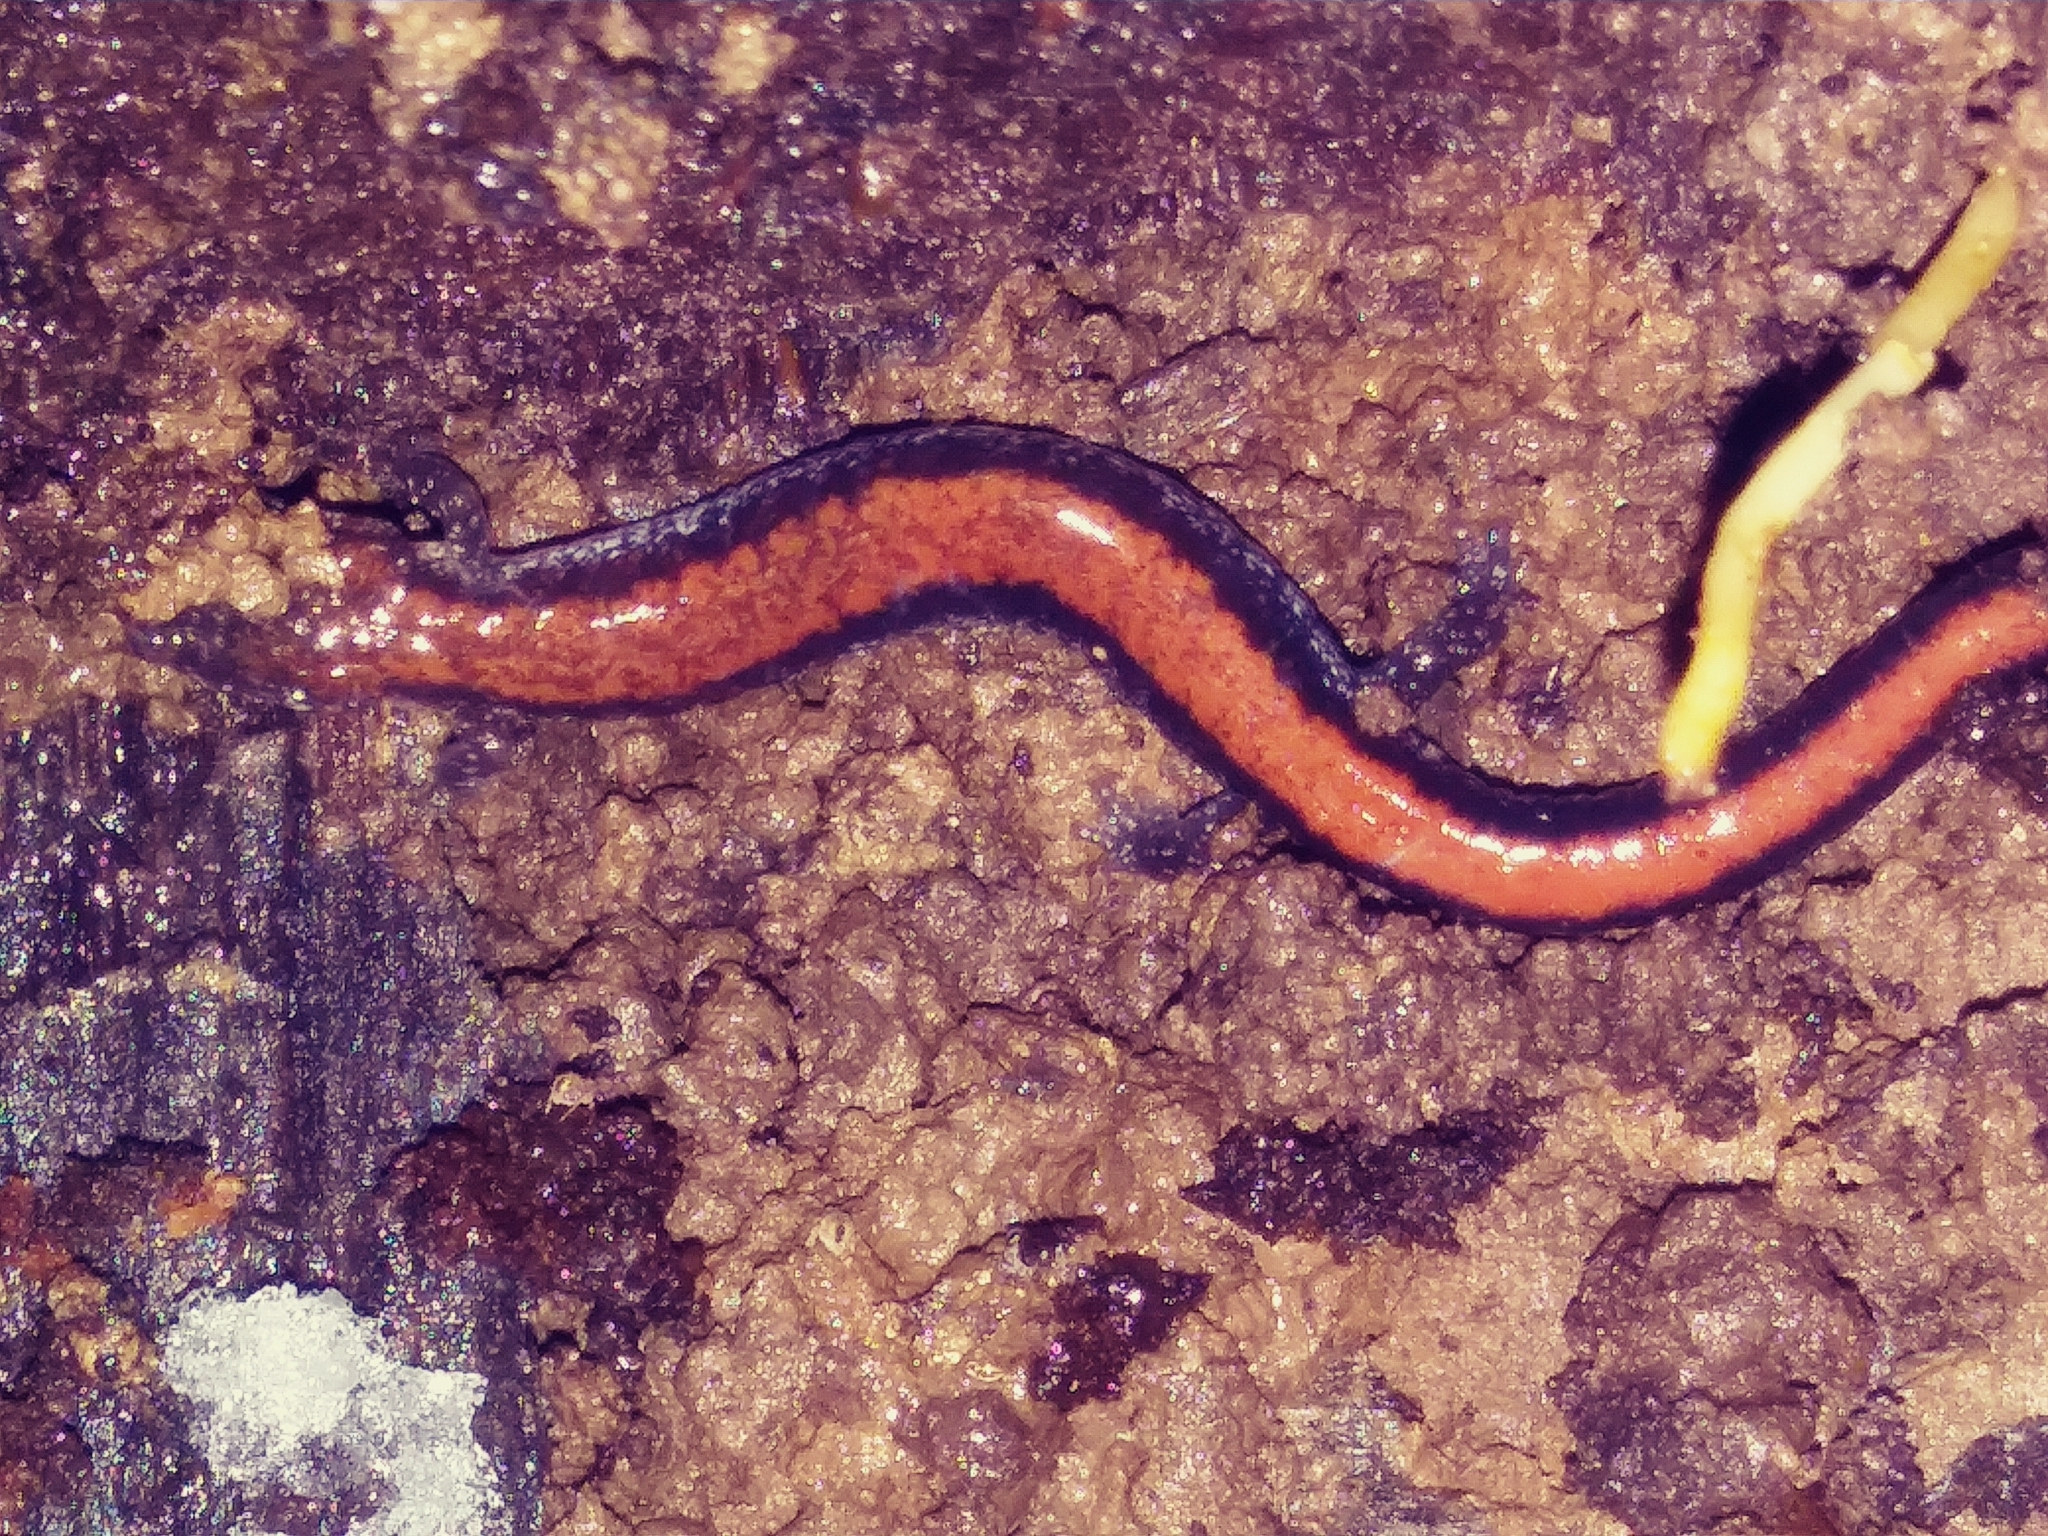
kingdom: Animalia
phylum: Chordata
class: Amphibia
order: Caudata
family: Plethodontidae
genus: Plethodon
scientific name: Plethodon cinereus
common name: Redback salamander
